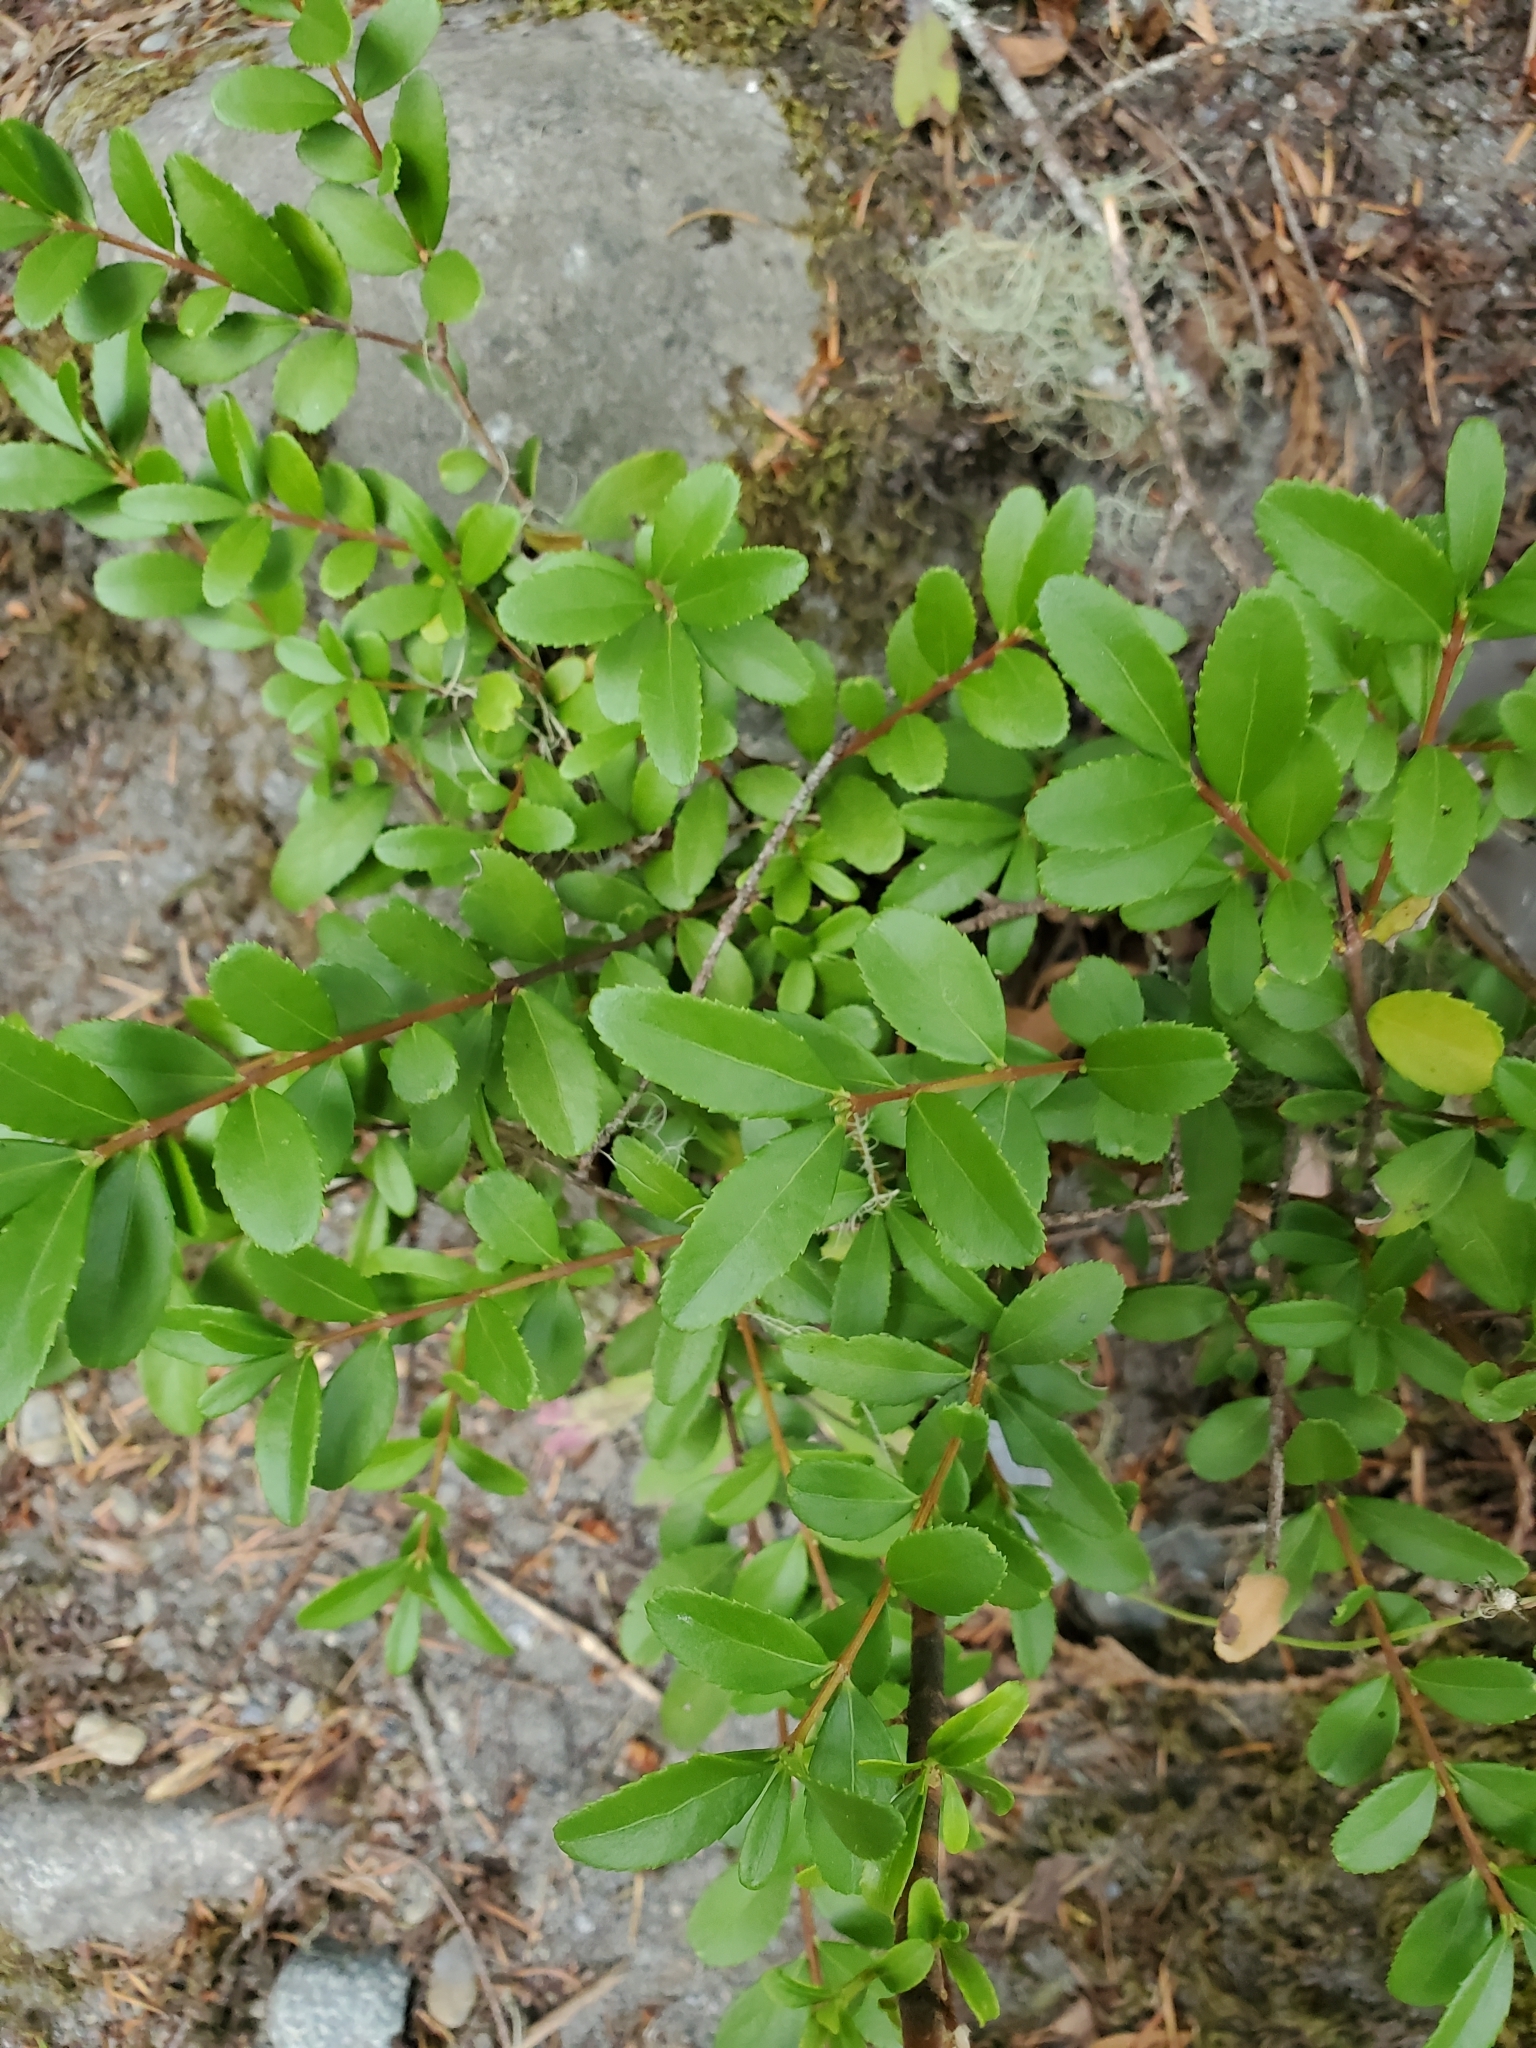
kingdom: Plantae
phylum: Tracheophyta
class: Magnoliopsida
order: Celastrales
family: Celastraceae
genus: Paxistima
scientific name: Paxistima myrsinites
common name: Mountain-lover
